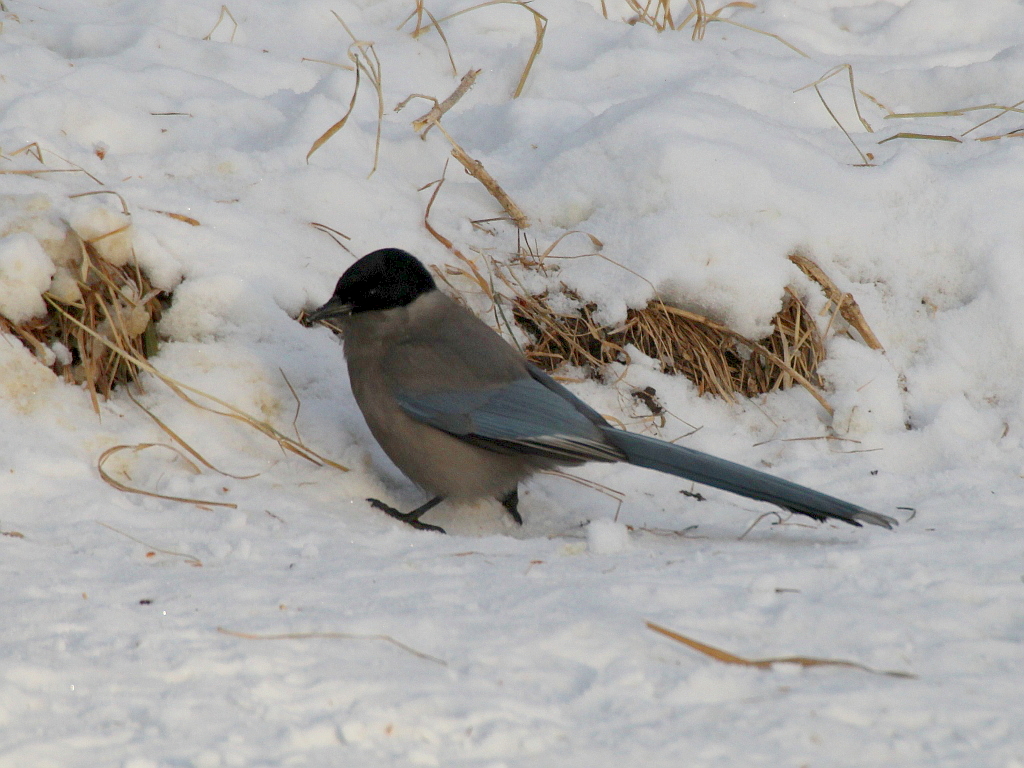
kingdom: Animalia
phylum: Chordata
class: Aves
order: Passeriformes
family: Corvidae
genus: Cyanopica
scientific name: Cyanopica cyanus
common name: Azure-winged magpie
